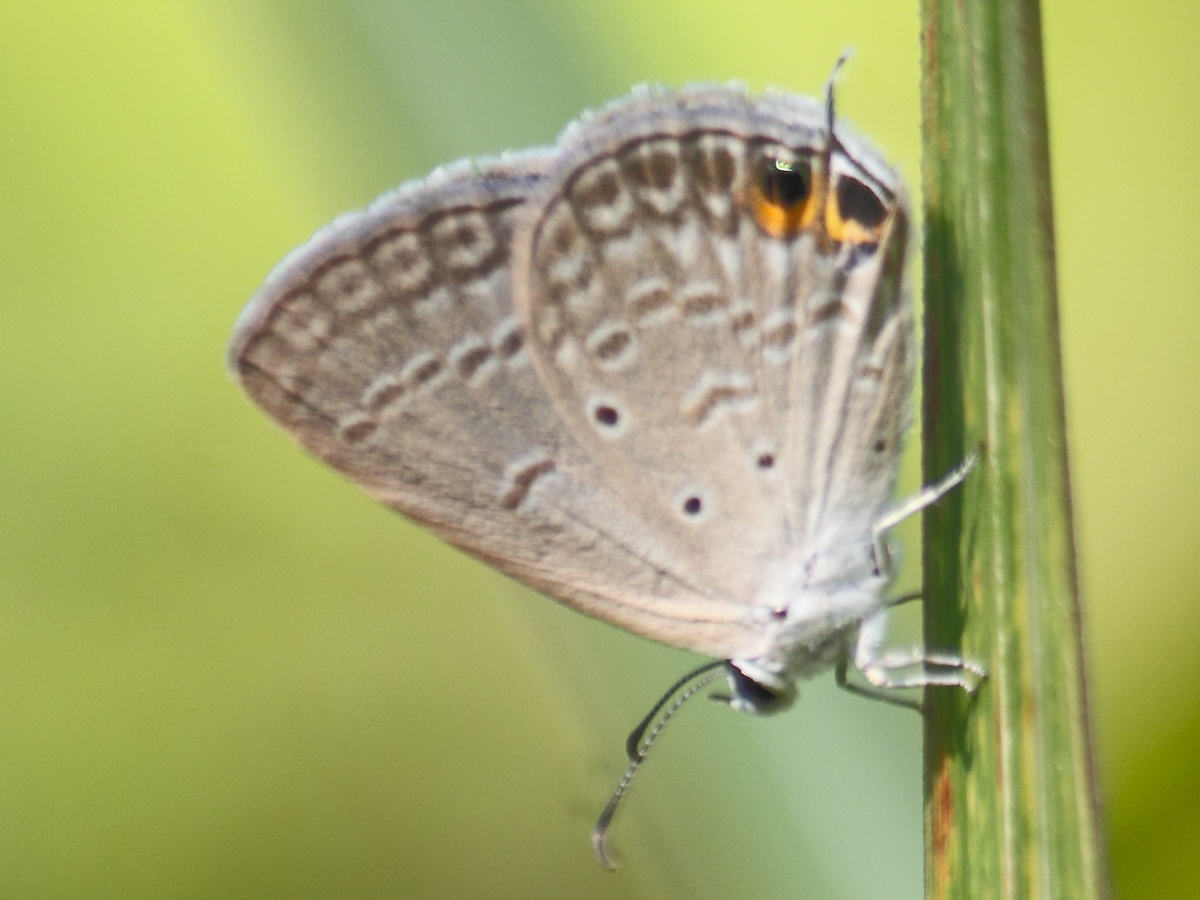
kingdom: Animalia
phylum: Arthropoda
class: Insecta
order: Lepidoptera
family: Lycaenidae
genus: Euchrysops
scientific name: Euchrysops cnejus
